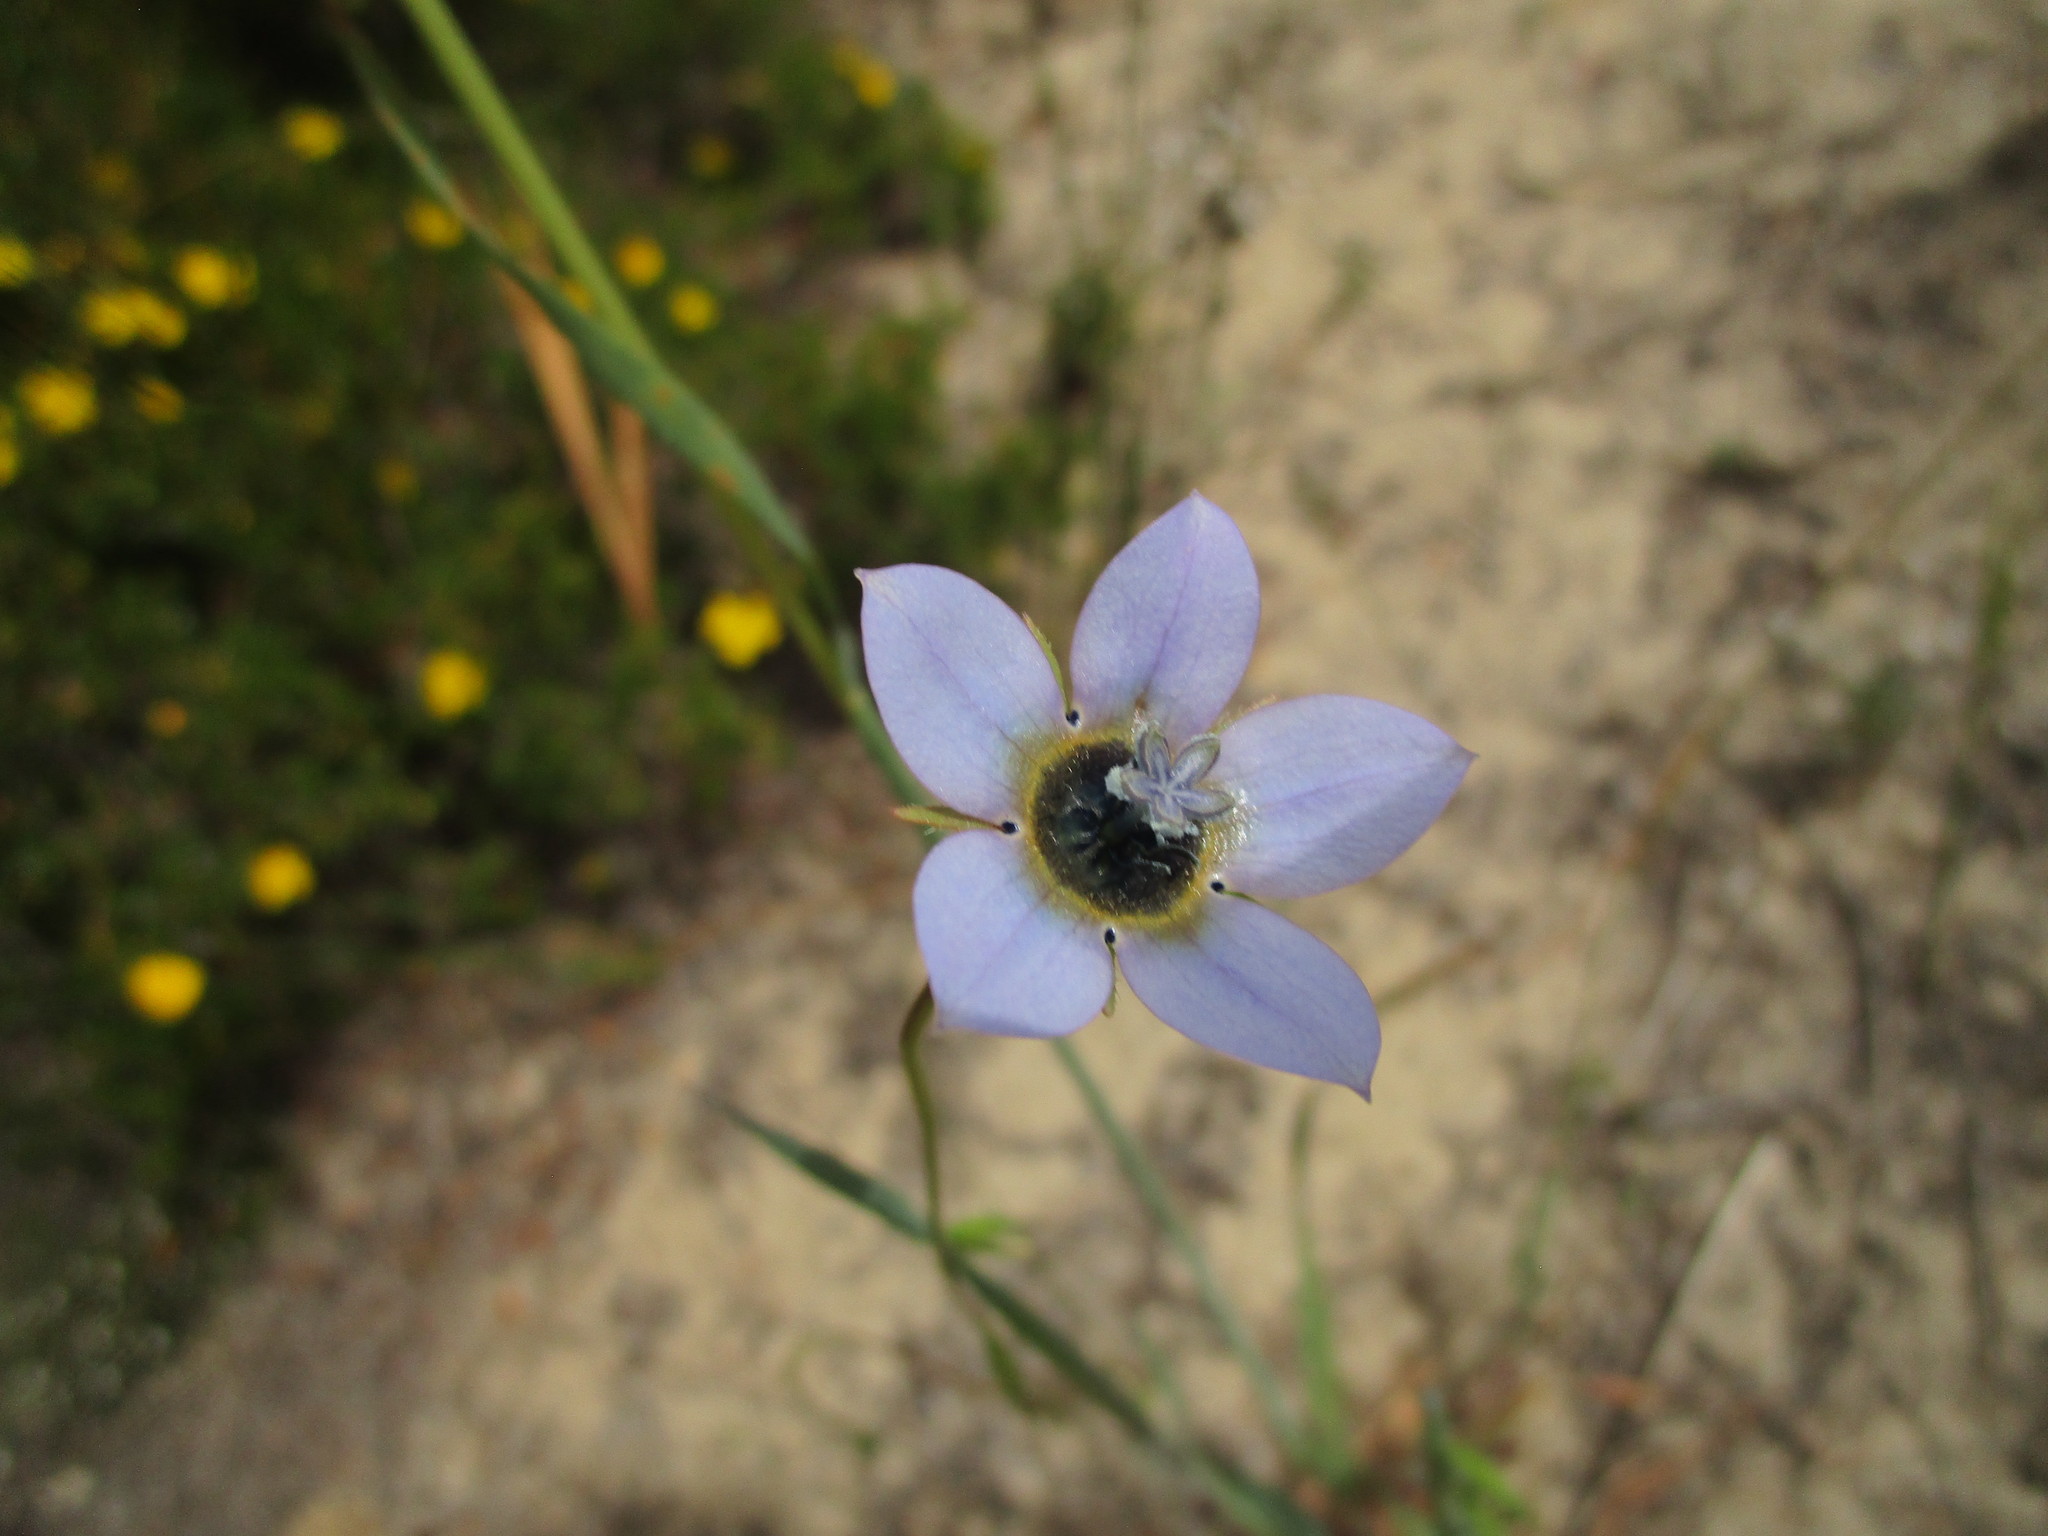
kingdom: Plantae
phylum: Tracheophyta
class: Magnoliopsida
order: Asterales
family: Campanulaceae
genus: Wahlenbergia
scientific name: Wahlenbergia capensis
